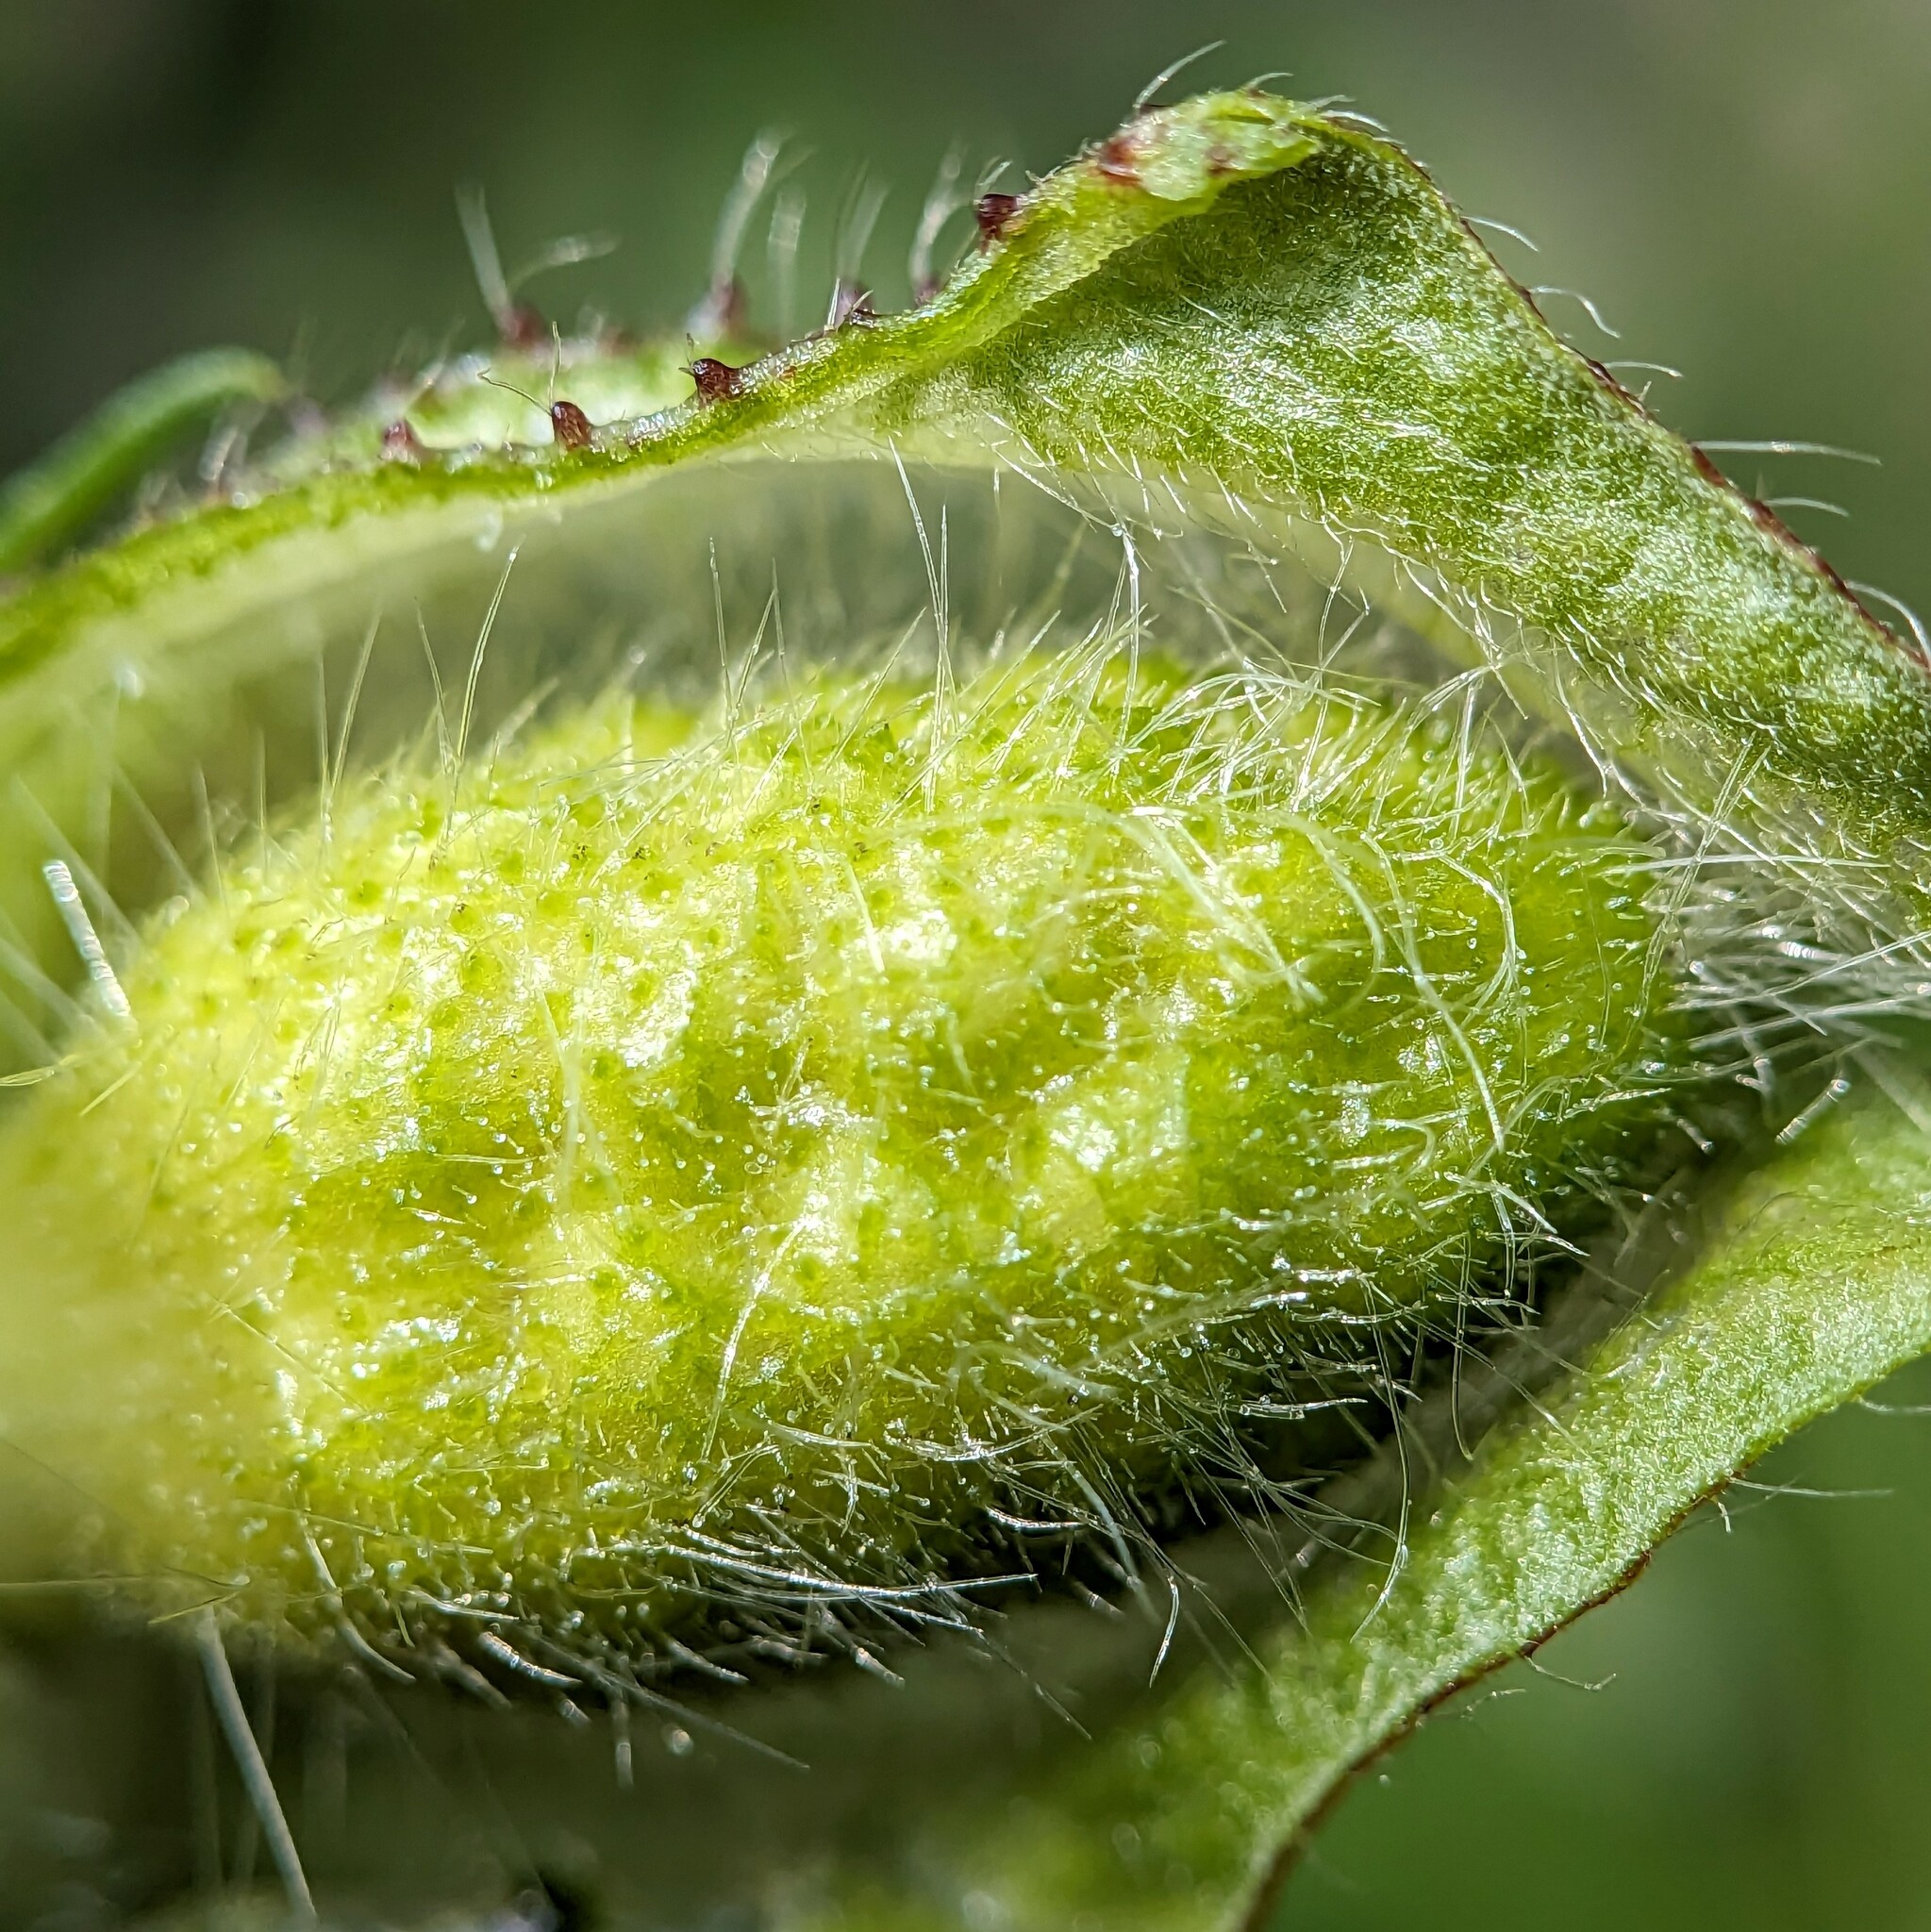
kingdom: Plantae
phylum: Tracheophyta
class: Magnoliopsida
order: Malvales
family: Malvaceae
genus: Hibiscus
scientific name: Hibiscus trionum
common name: Bladder ketmia
